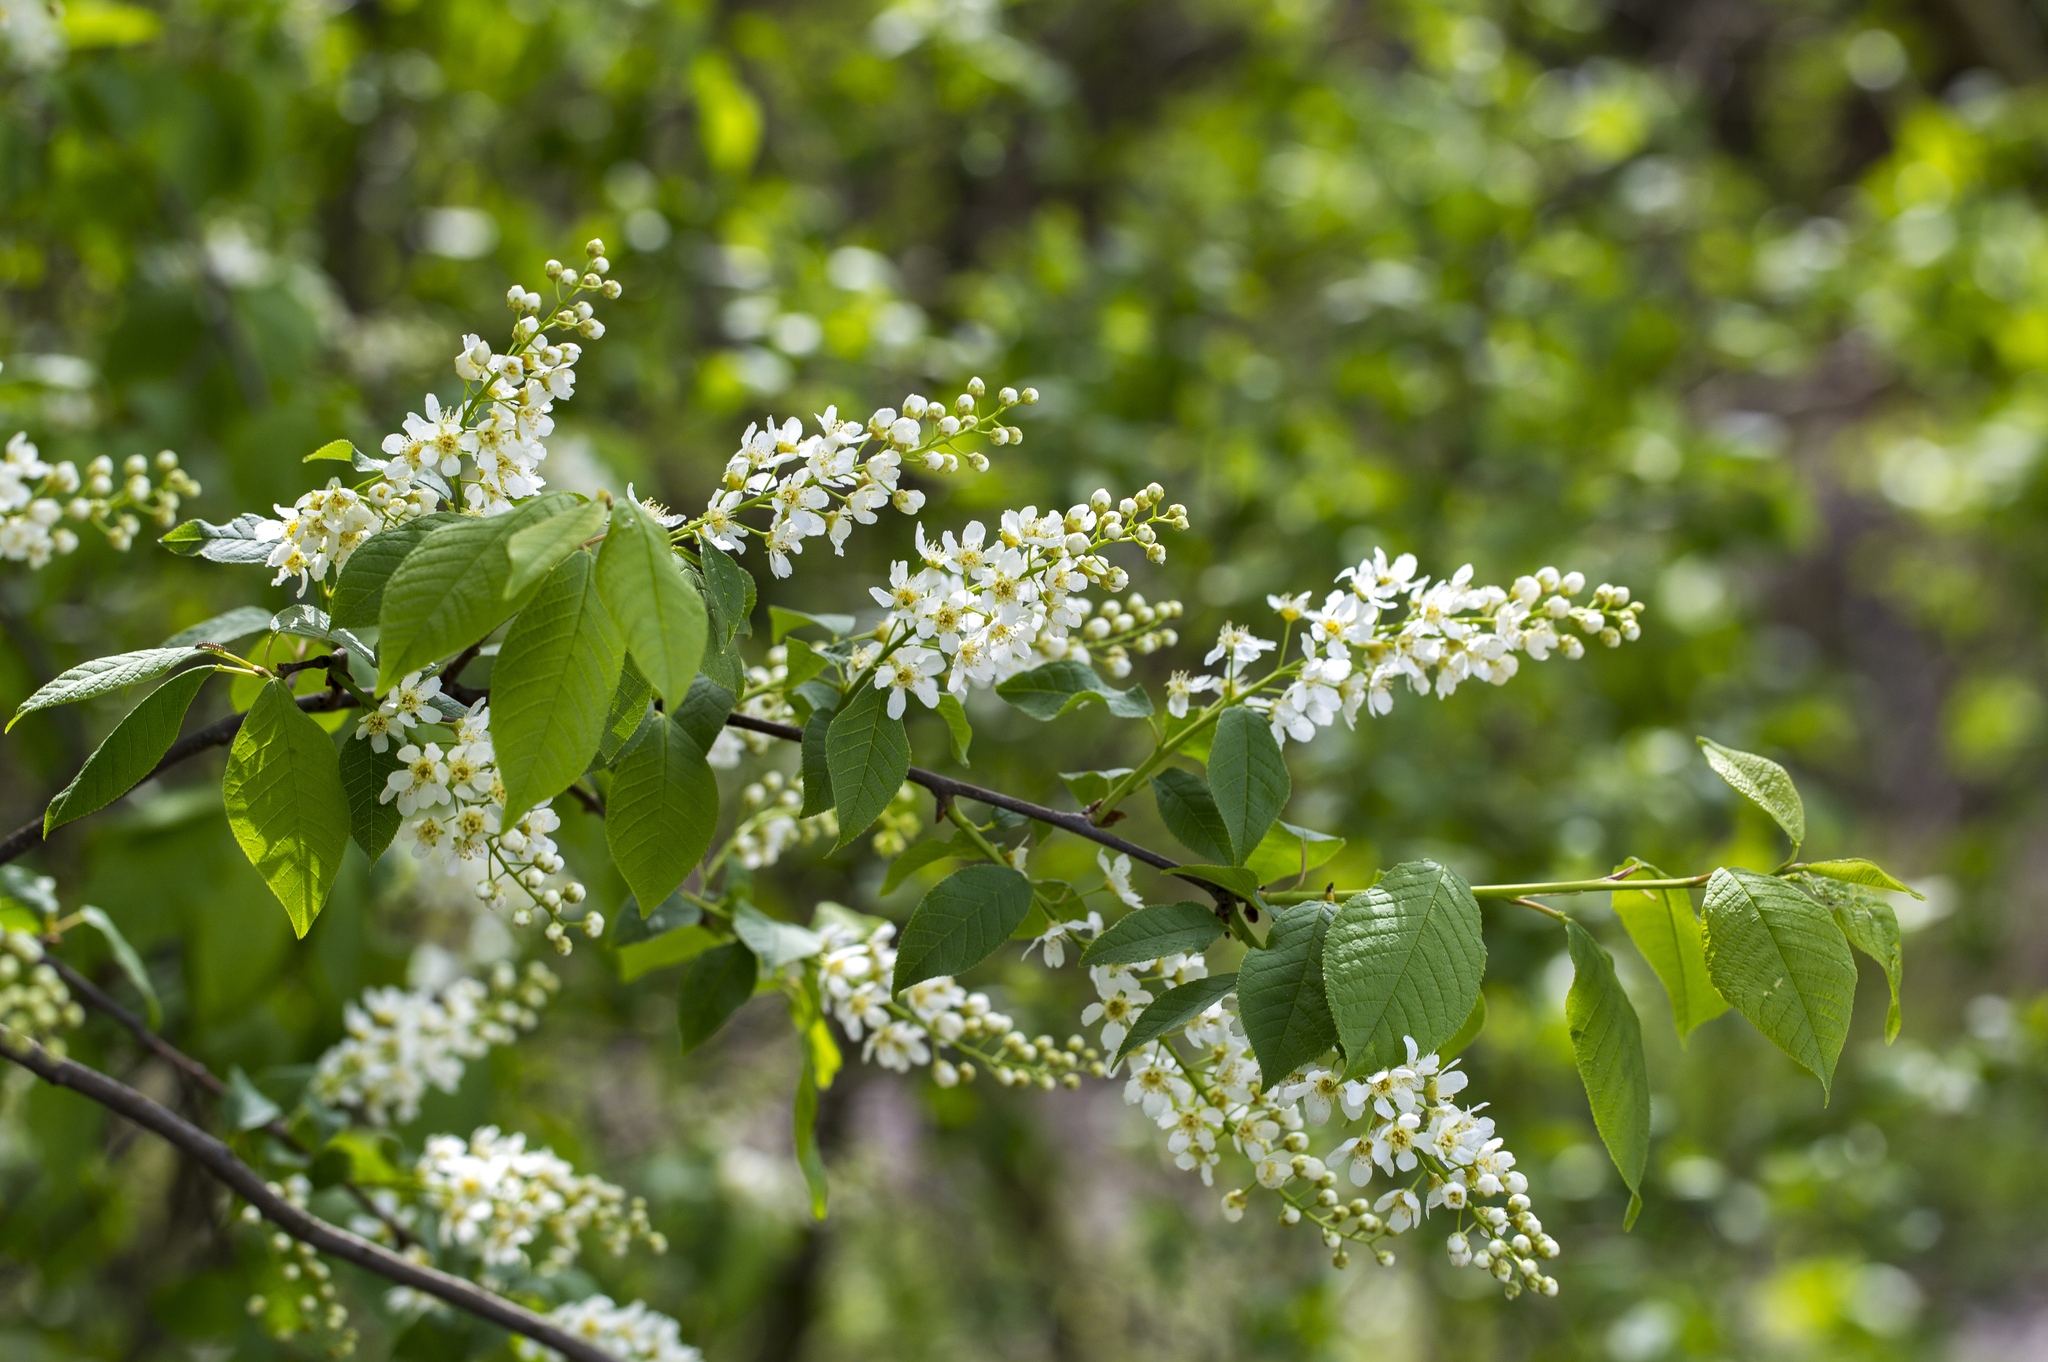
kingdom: Plantae
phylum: Tracheophyta
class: Magnoliopsida
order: Rosales
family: Rosaceae
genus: Prunus
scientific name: Prunus padus
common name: Bird cherry
